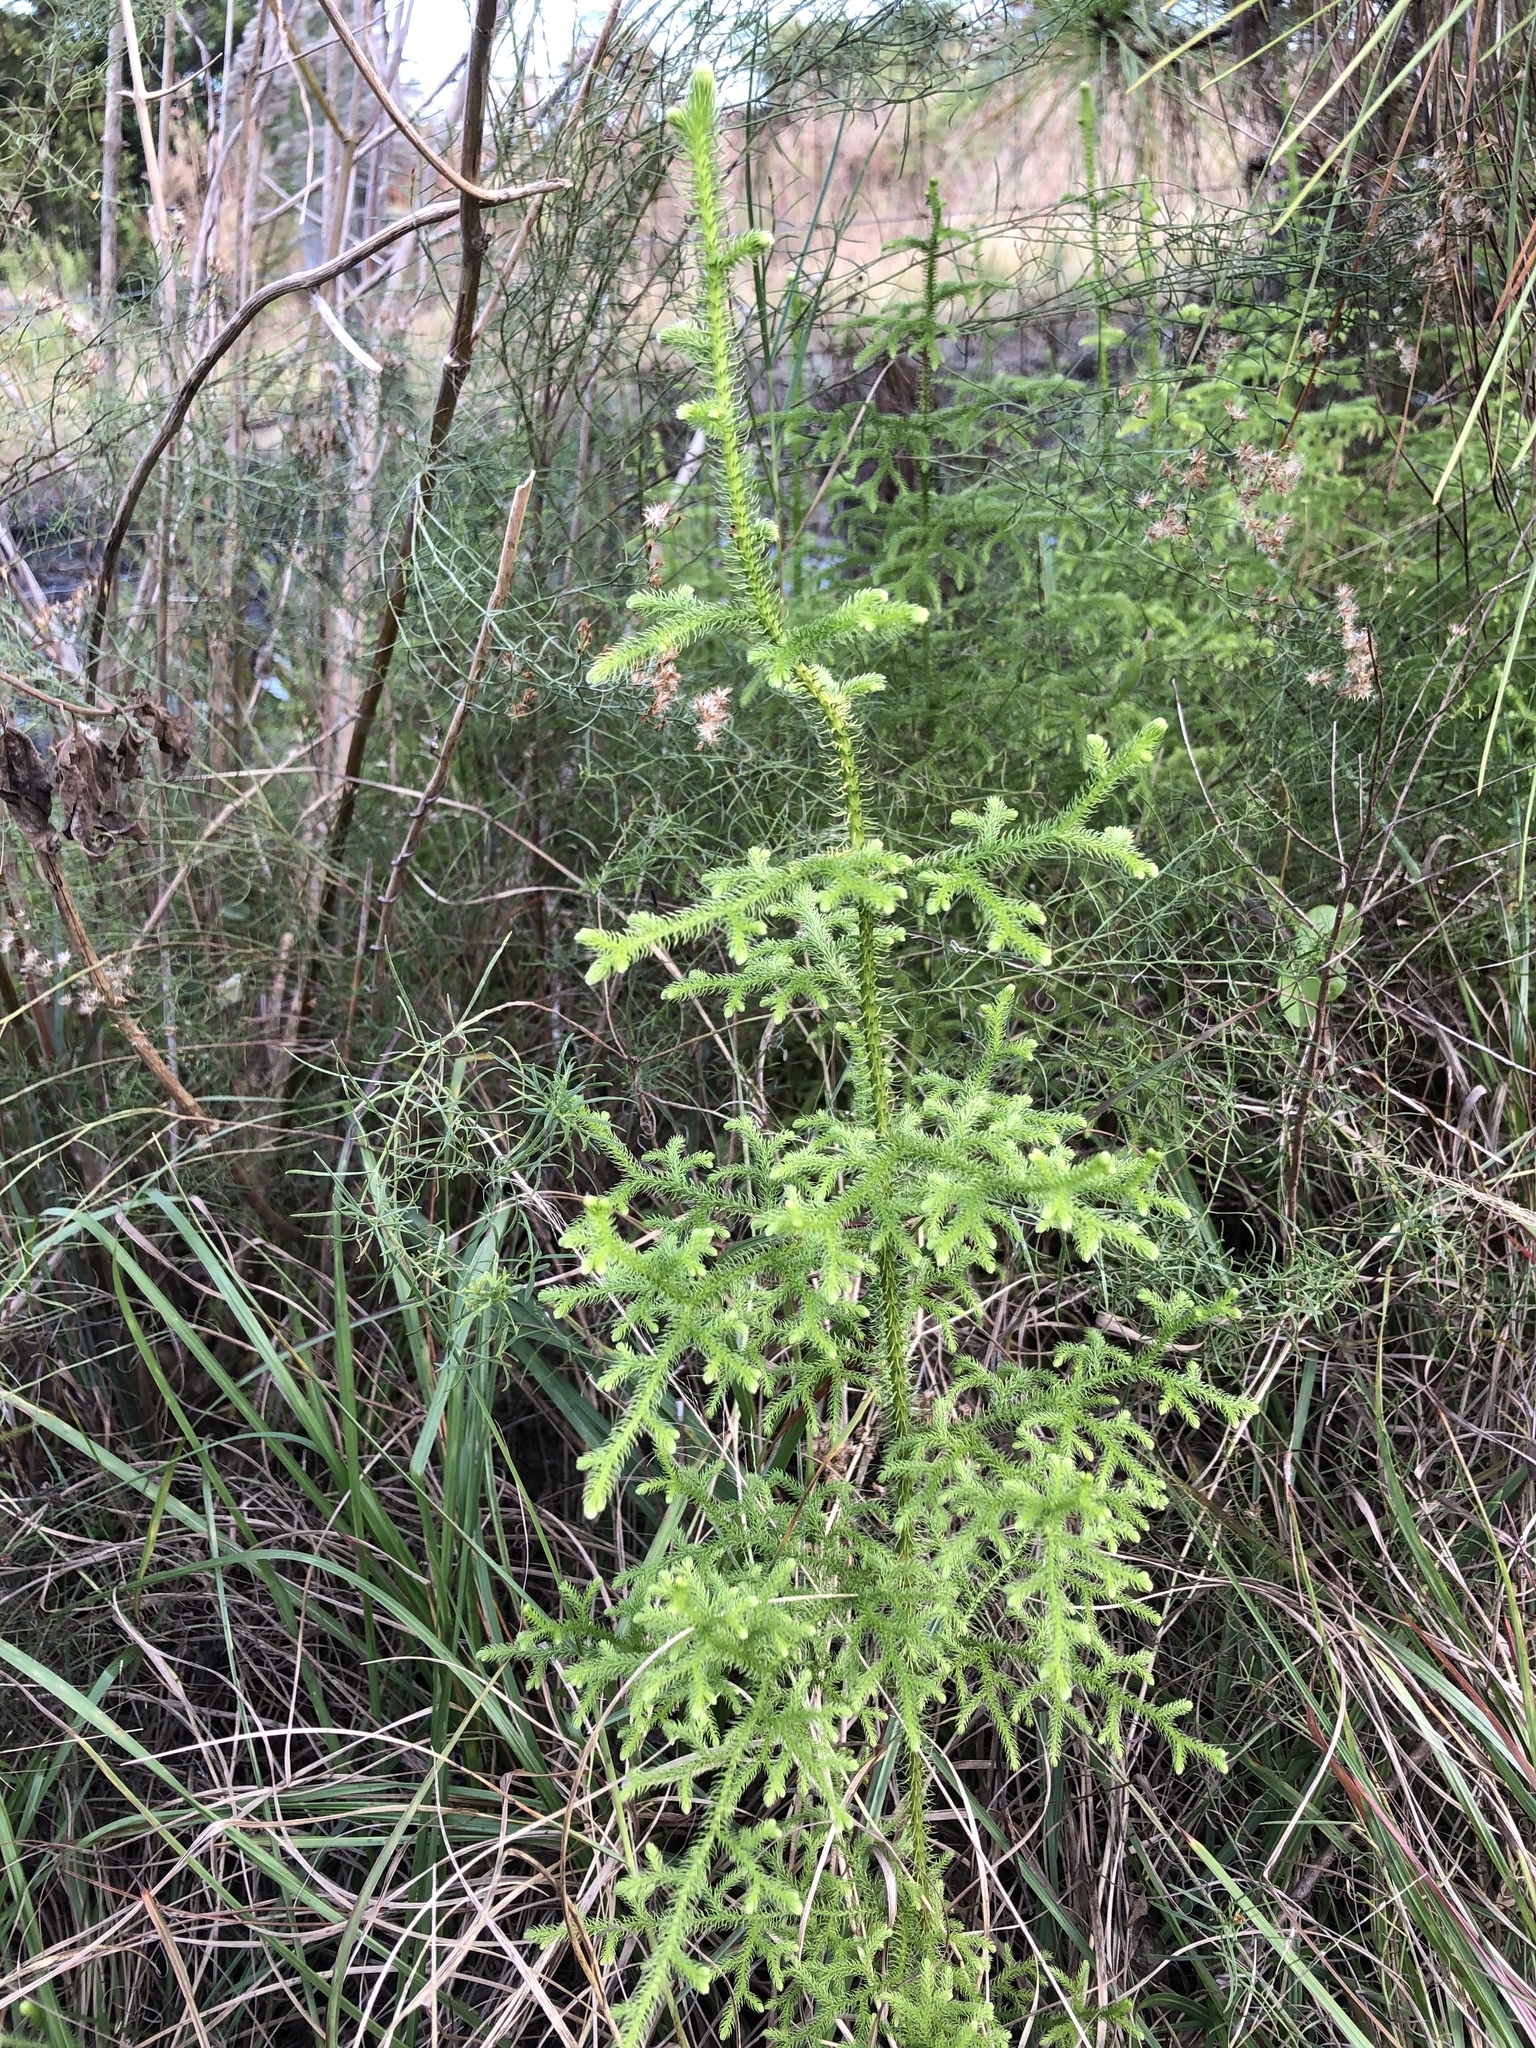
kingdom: Plantae
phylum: Tracheophyta
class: Lycopodiopsida
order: Lycopodiales
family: Lycopodiaceae
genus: Palhinhaea
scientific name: Palhinhaea cernua
